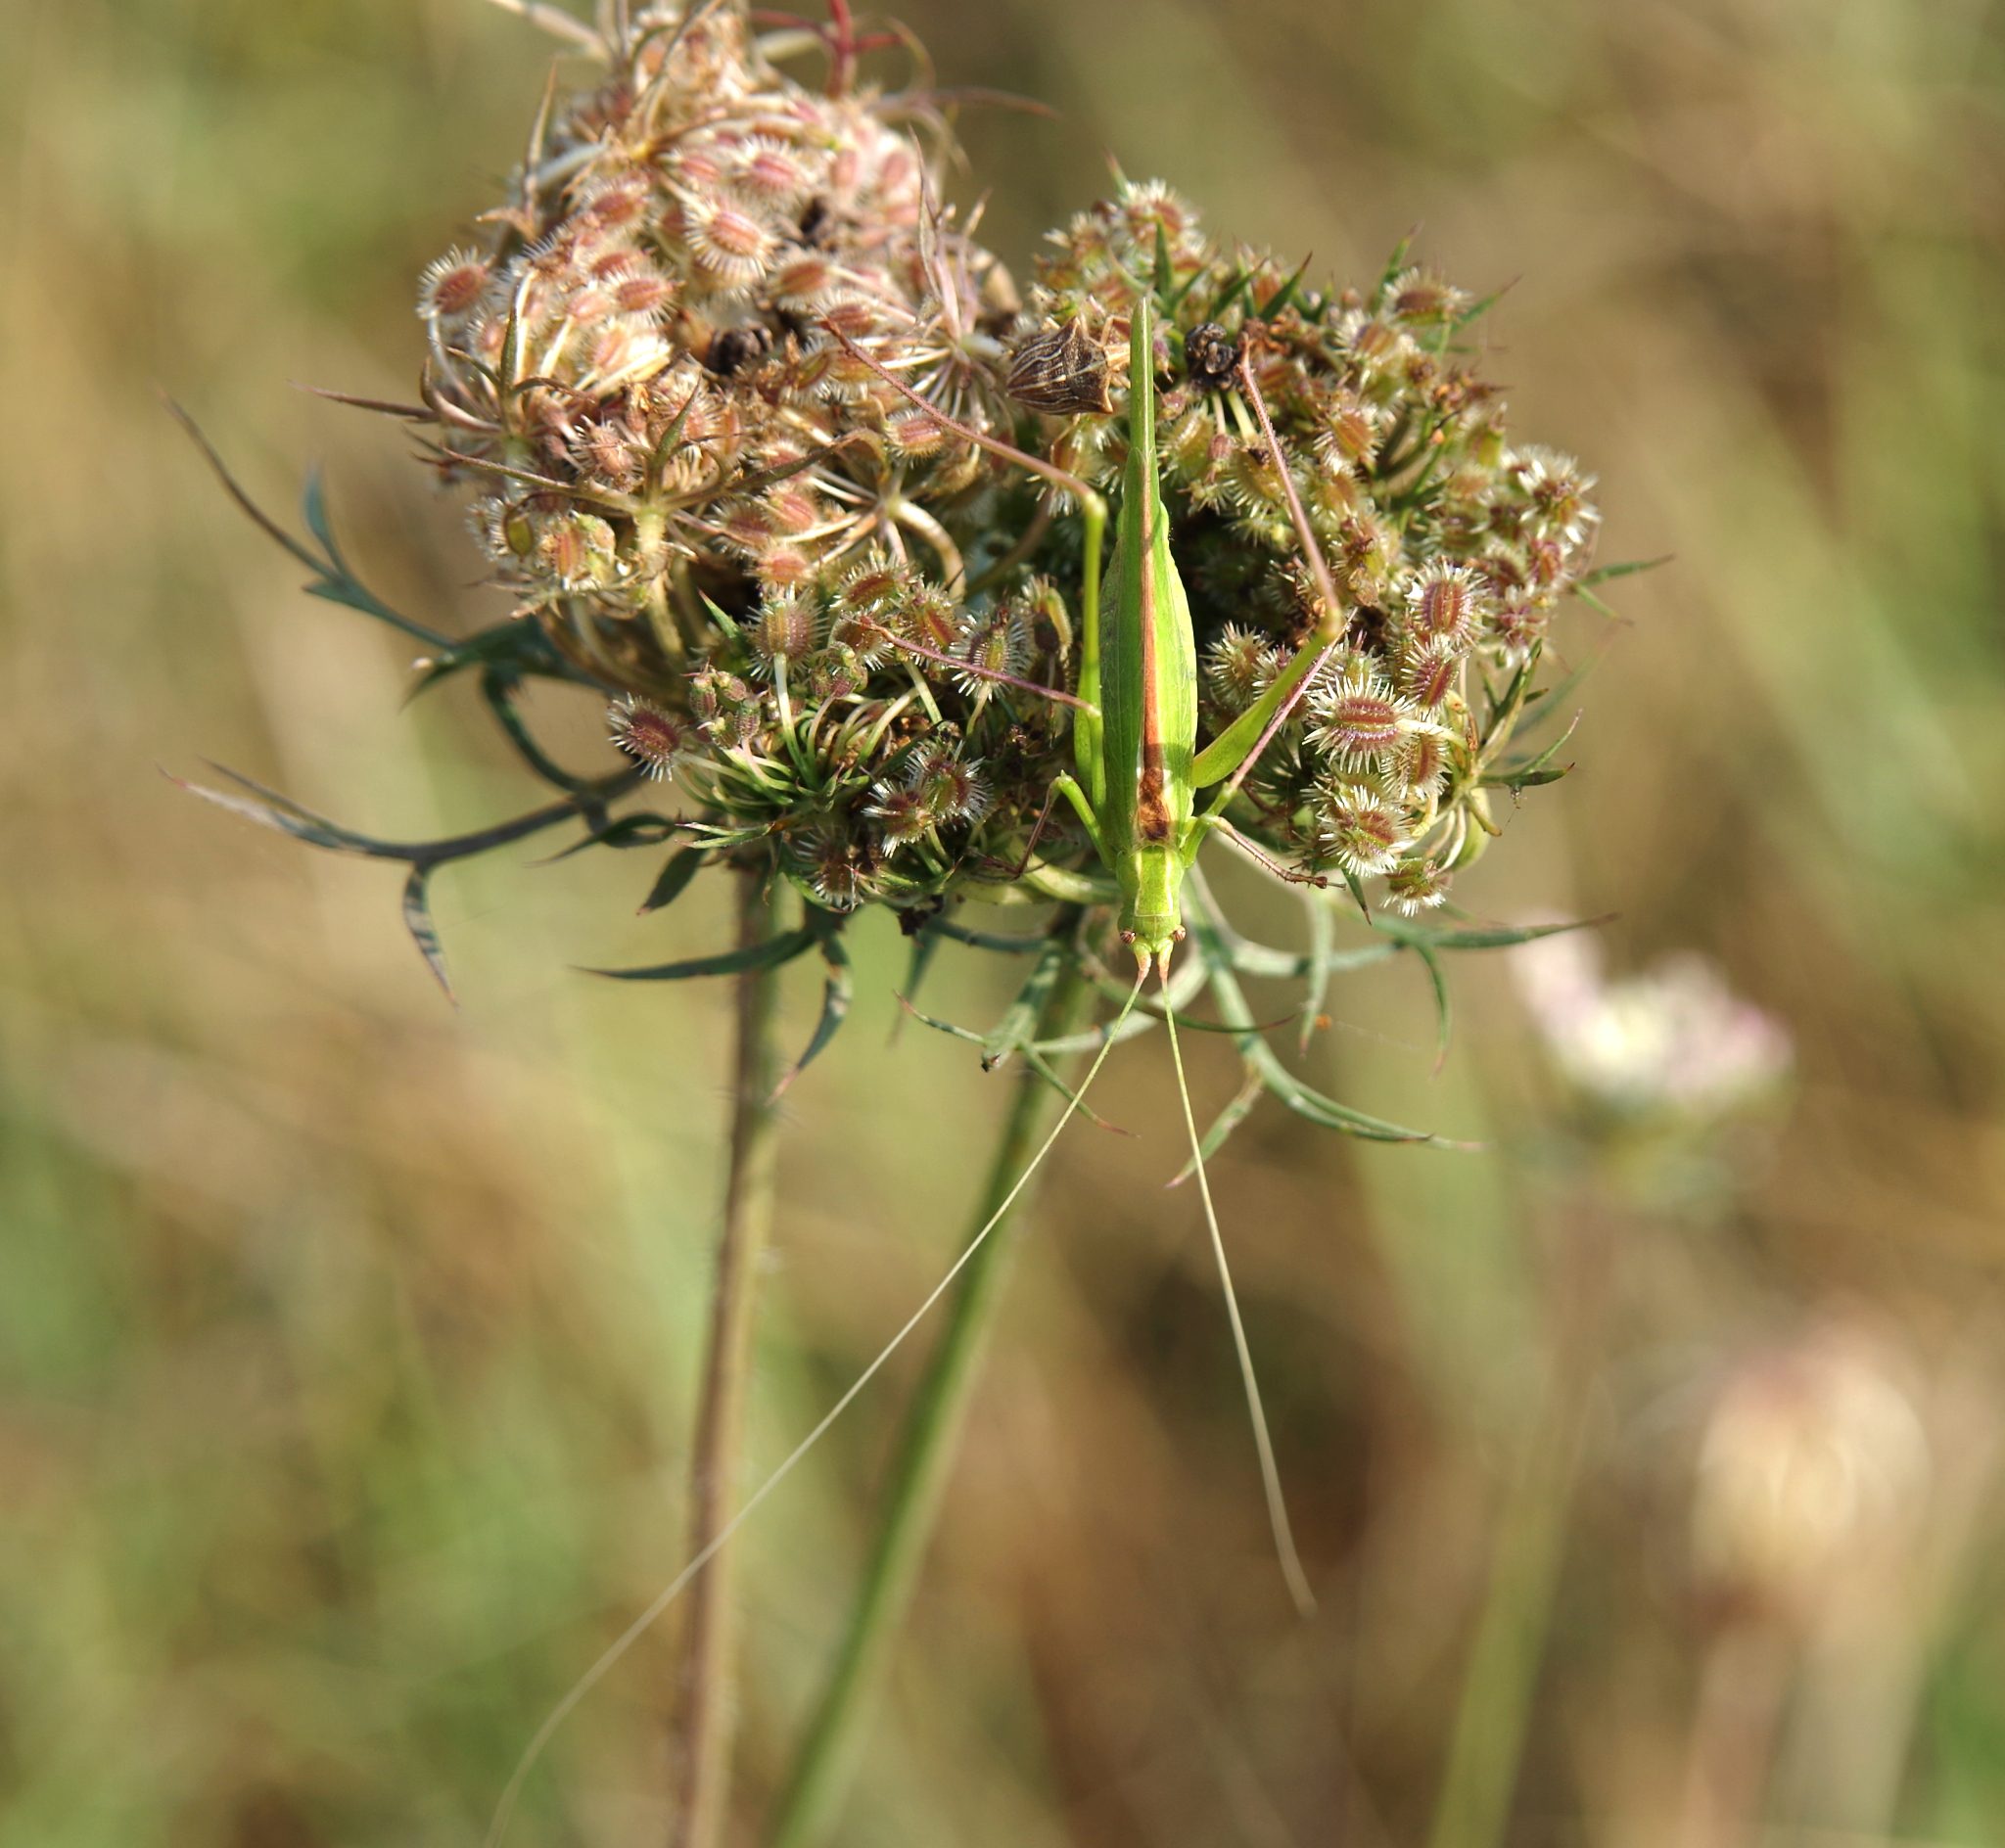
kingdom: Animalia
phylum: Arthropoda
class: Insecta
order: Orthoptera
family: Tettigoniidae
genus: Tylopsis
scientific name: Tylopsis lilifolia
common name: Lily bush-cricket
